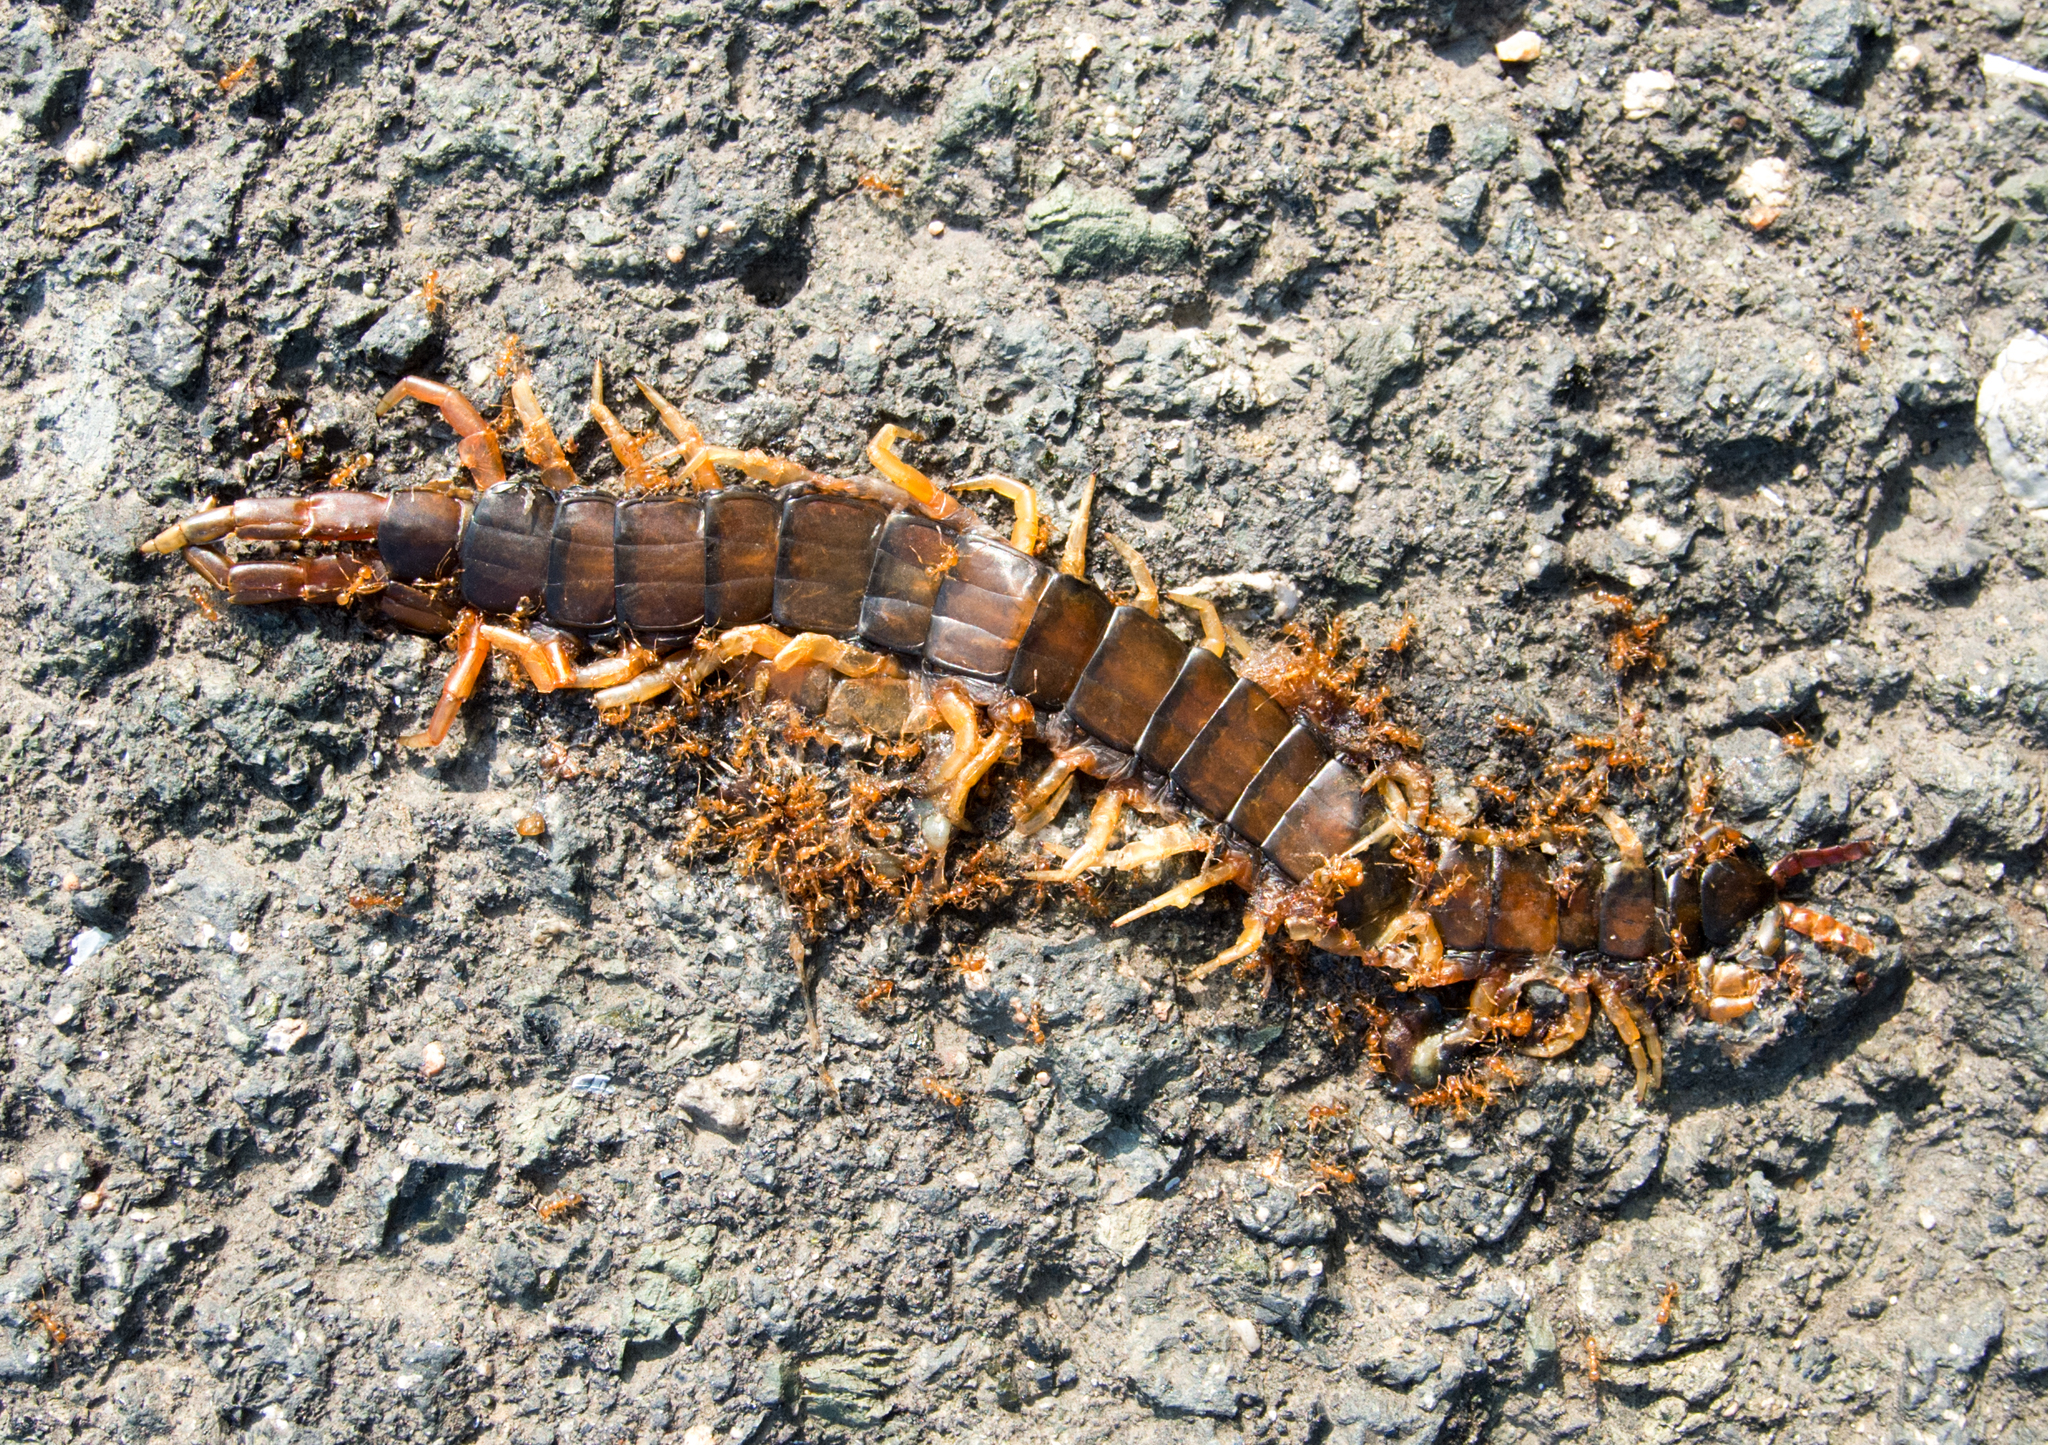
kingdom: Animalia
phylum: Arthropoda
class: Chilopoda
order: Scolopendromorpha
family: Scolopendridae
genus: Scolopendra
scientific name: Scolopendra cingulata
